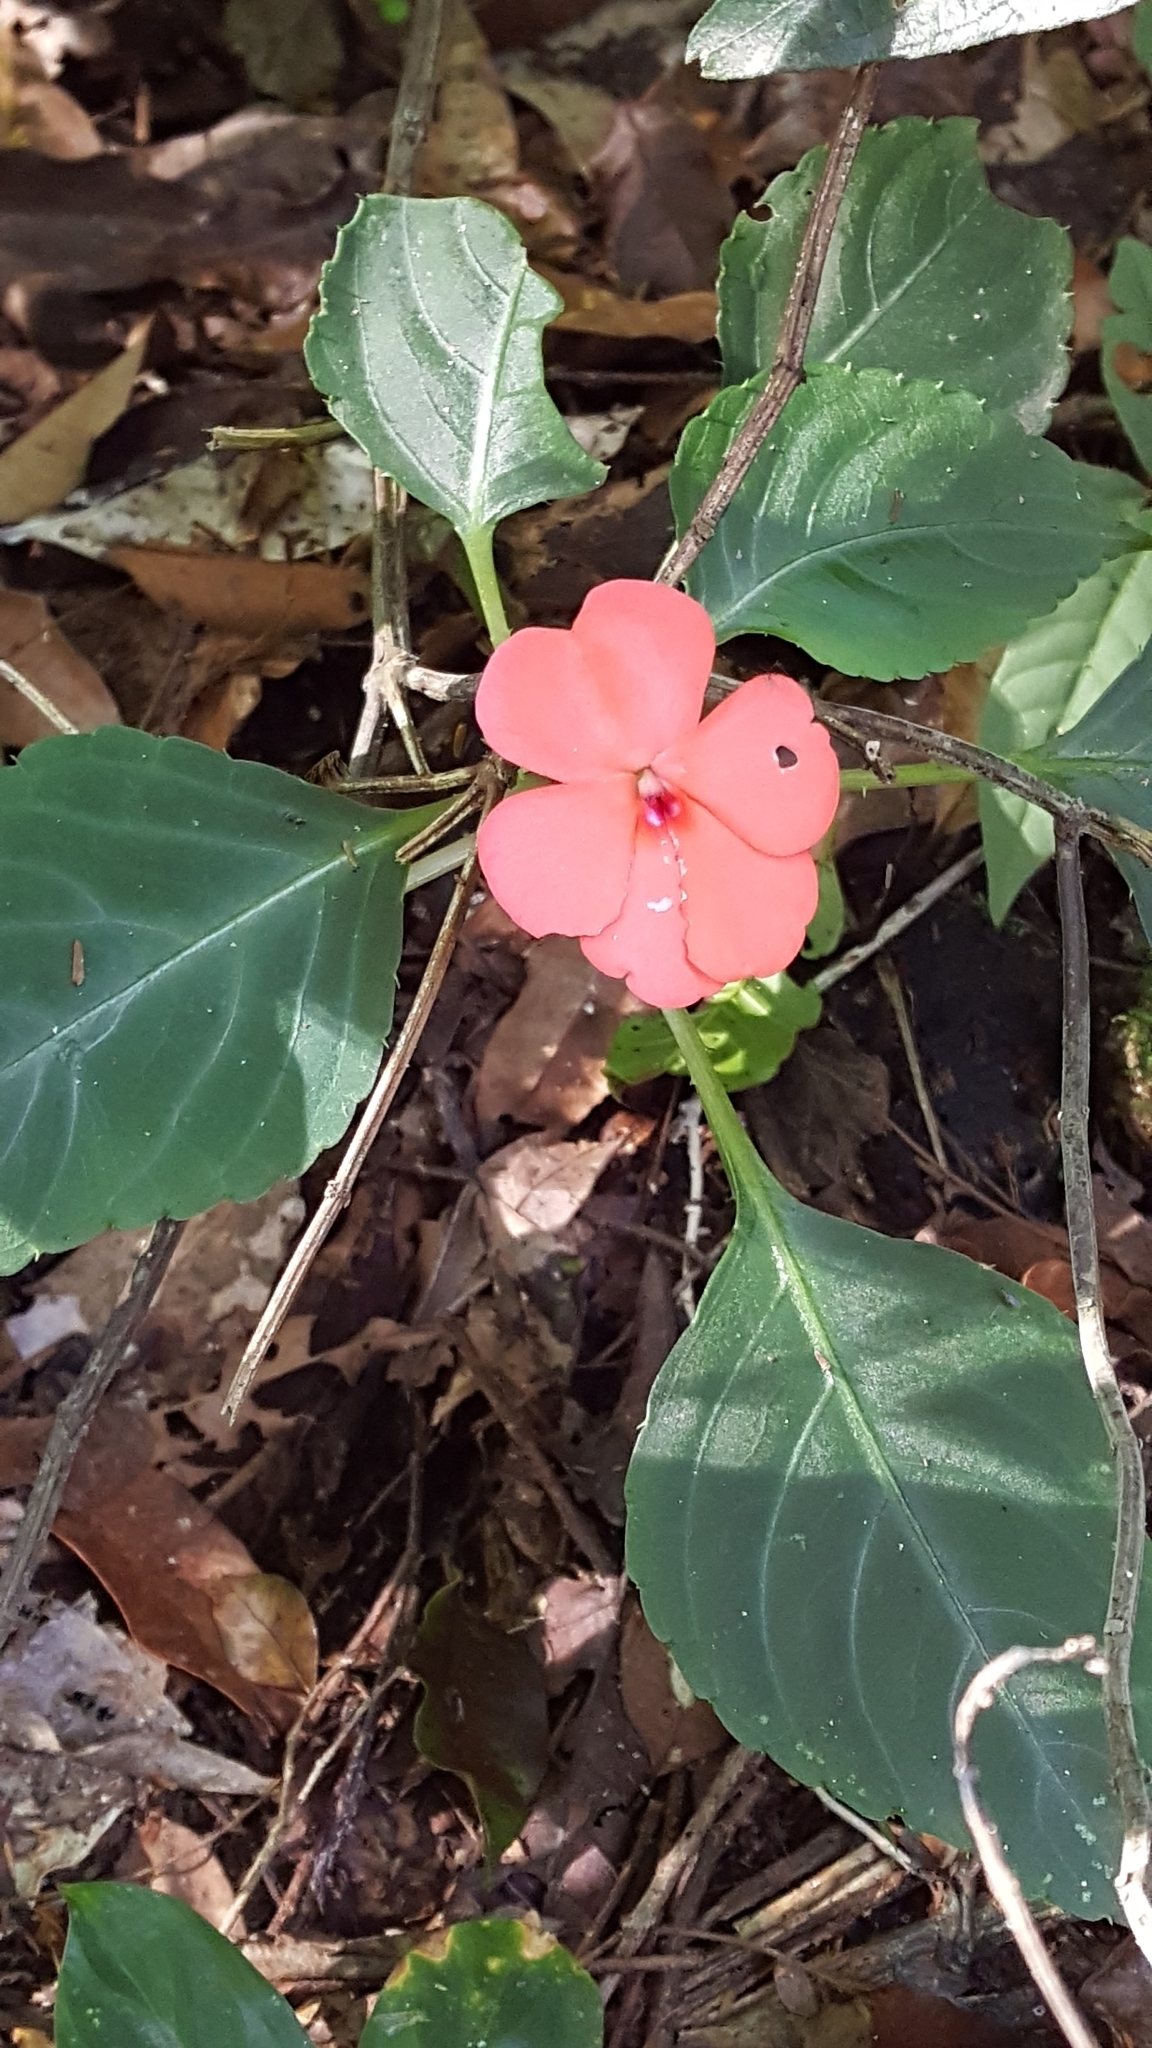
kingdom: Plantae
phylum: Tracheophyta
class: Magnoliopsida
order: Ericales
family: Balsaminaceae
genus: Impatiens
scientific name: Impatiens walleriana
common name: Buzzy lizzy
